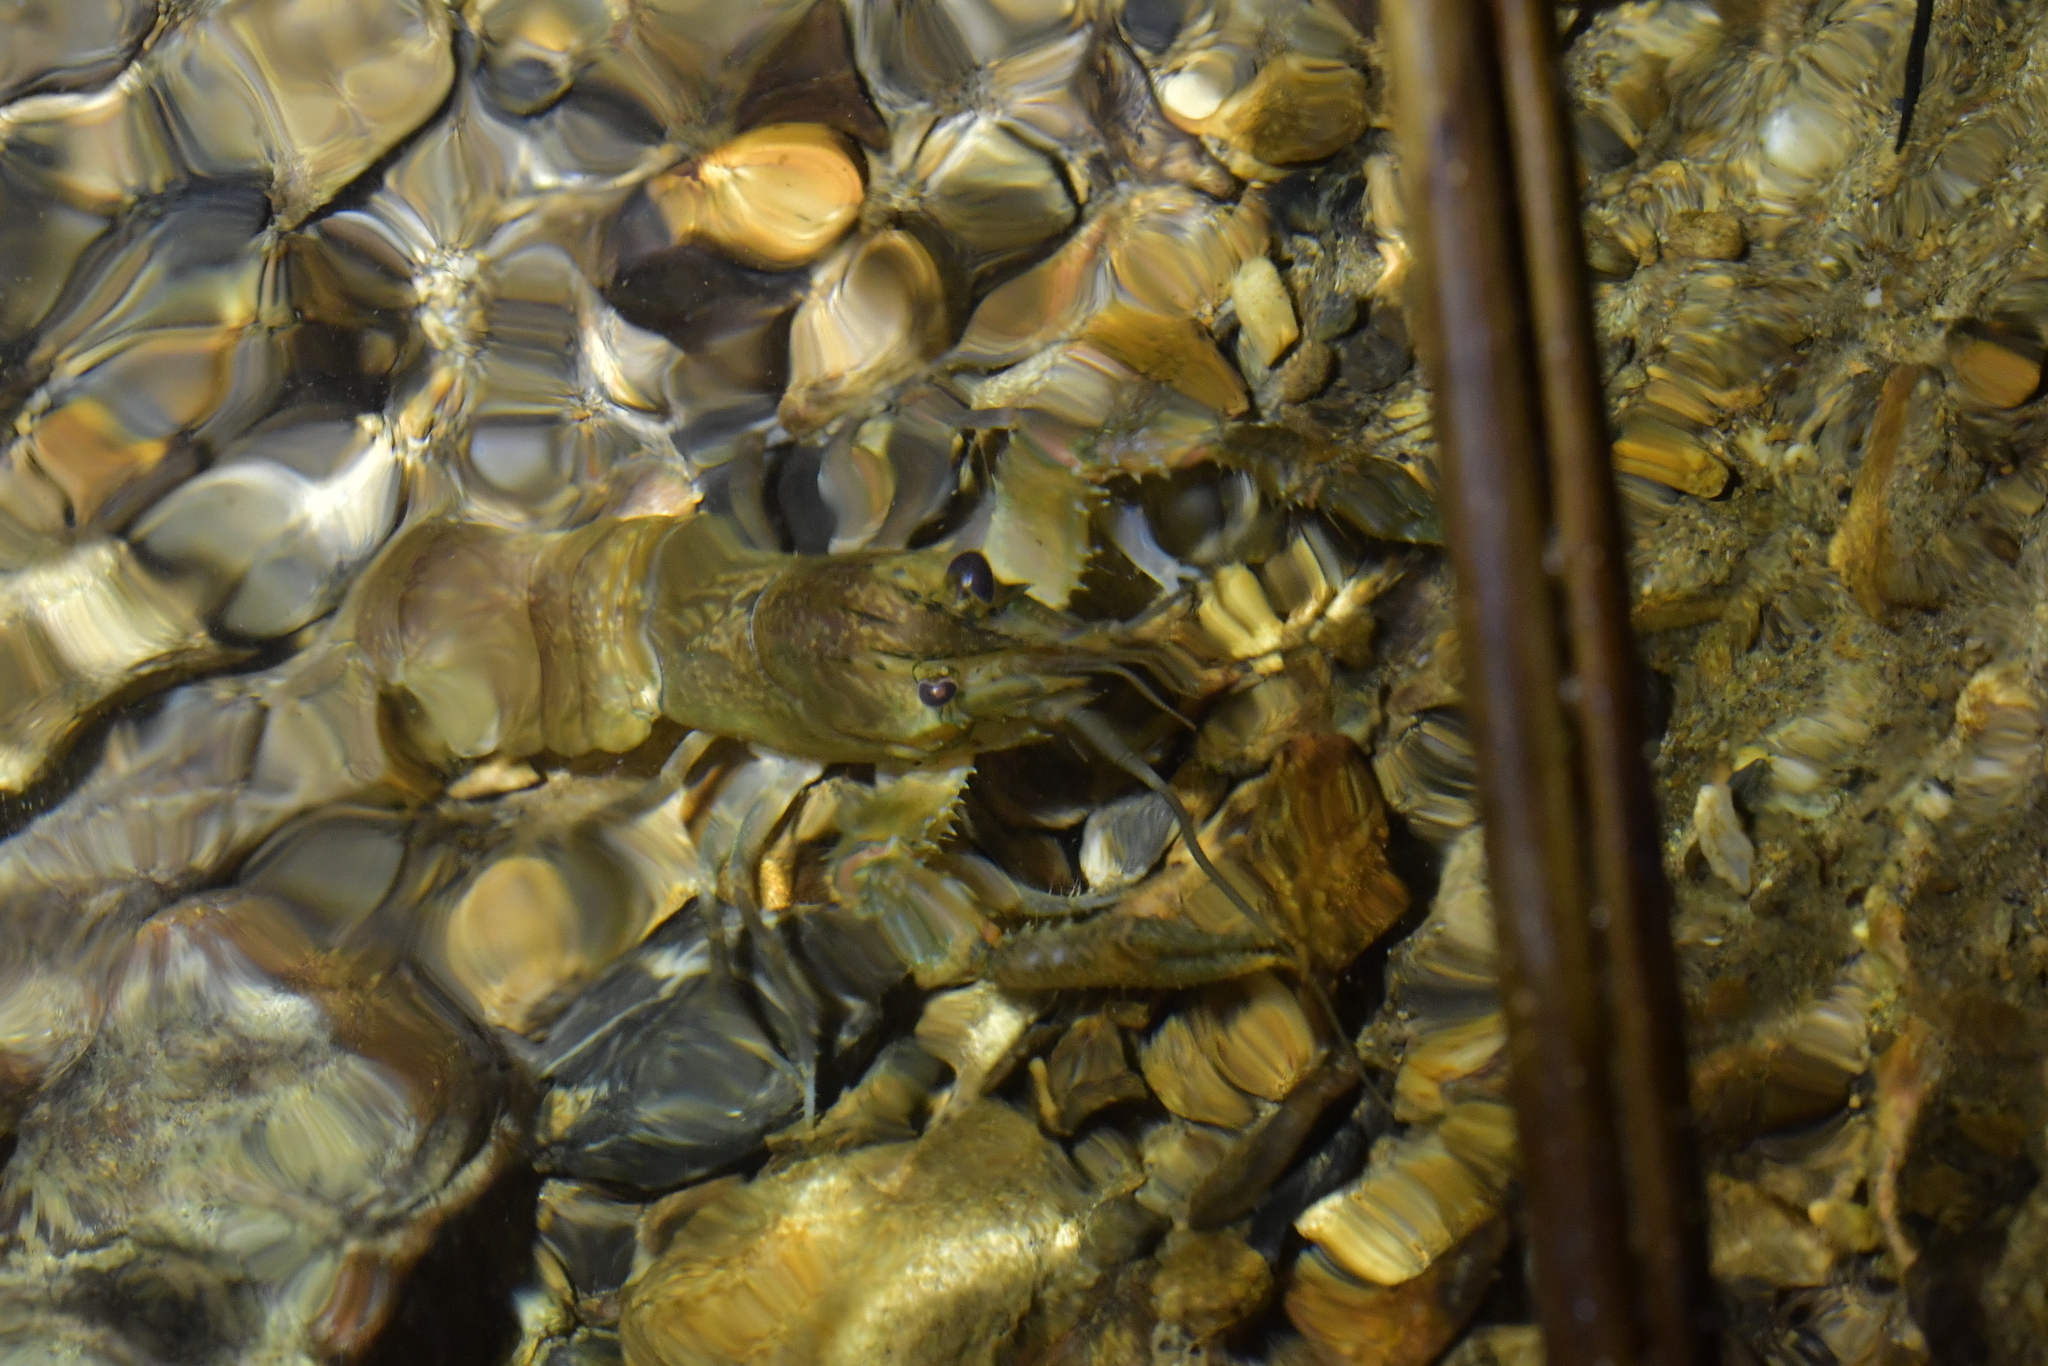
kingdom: Animalia
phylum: Arthropoda
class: Malacostraca
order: Decapoda
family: Parastacidae
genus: Paranephrops
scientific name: Paranephrops planifrons
